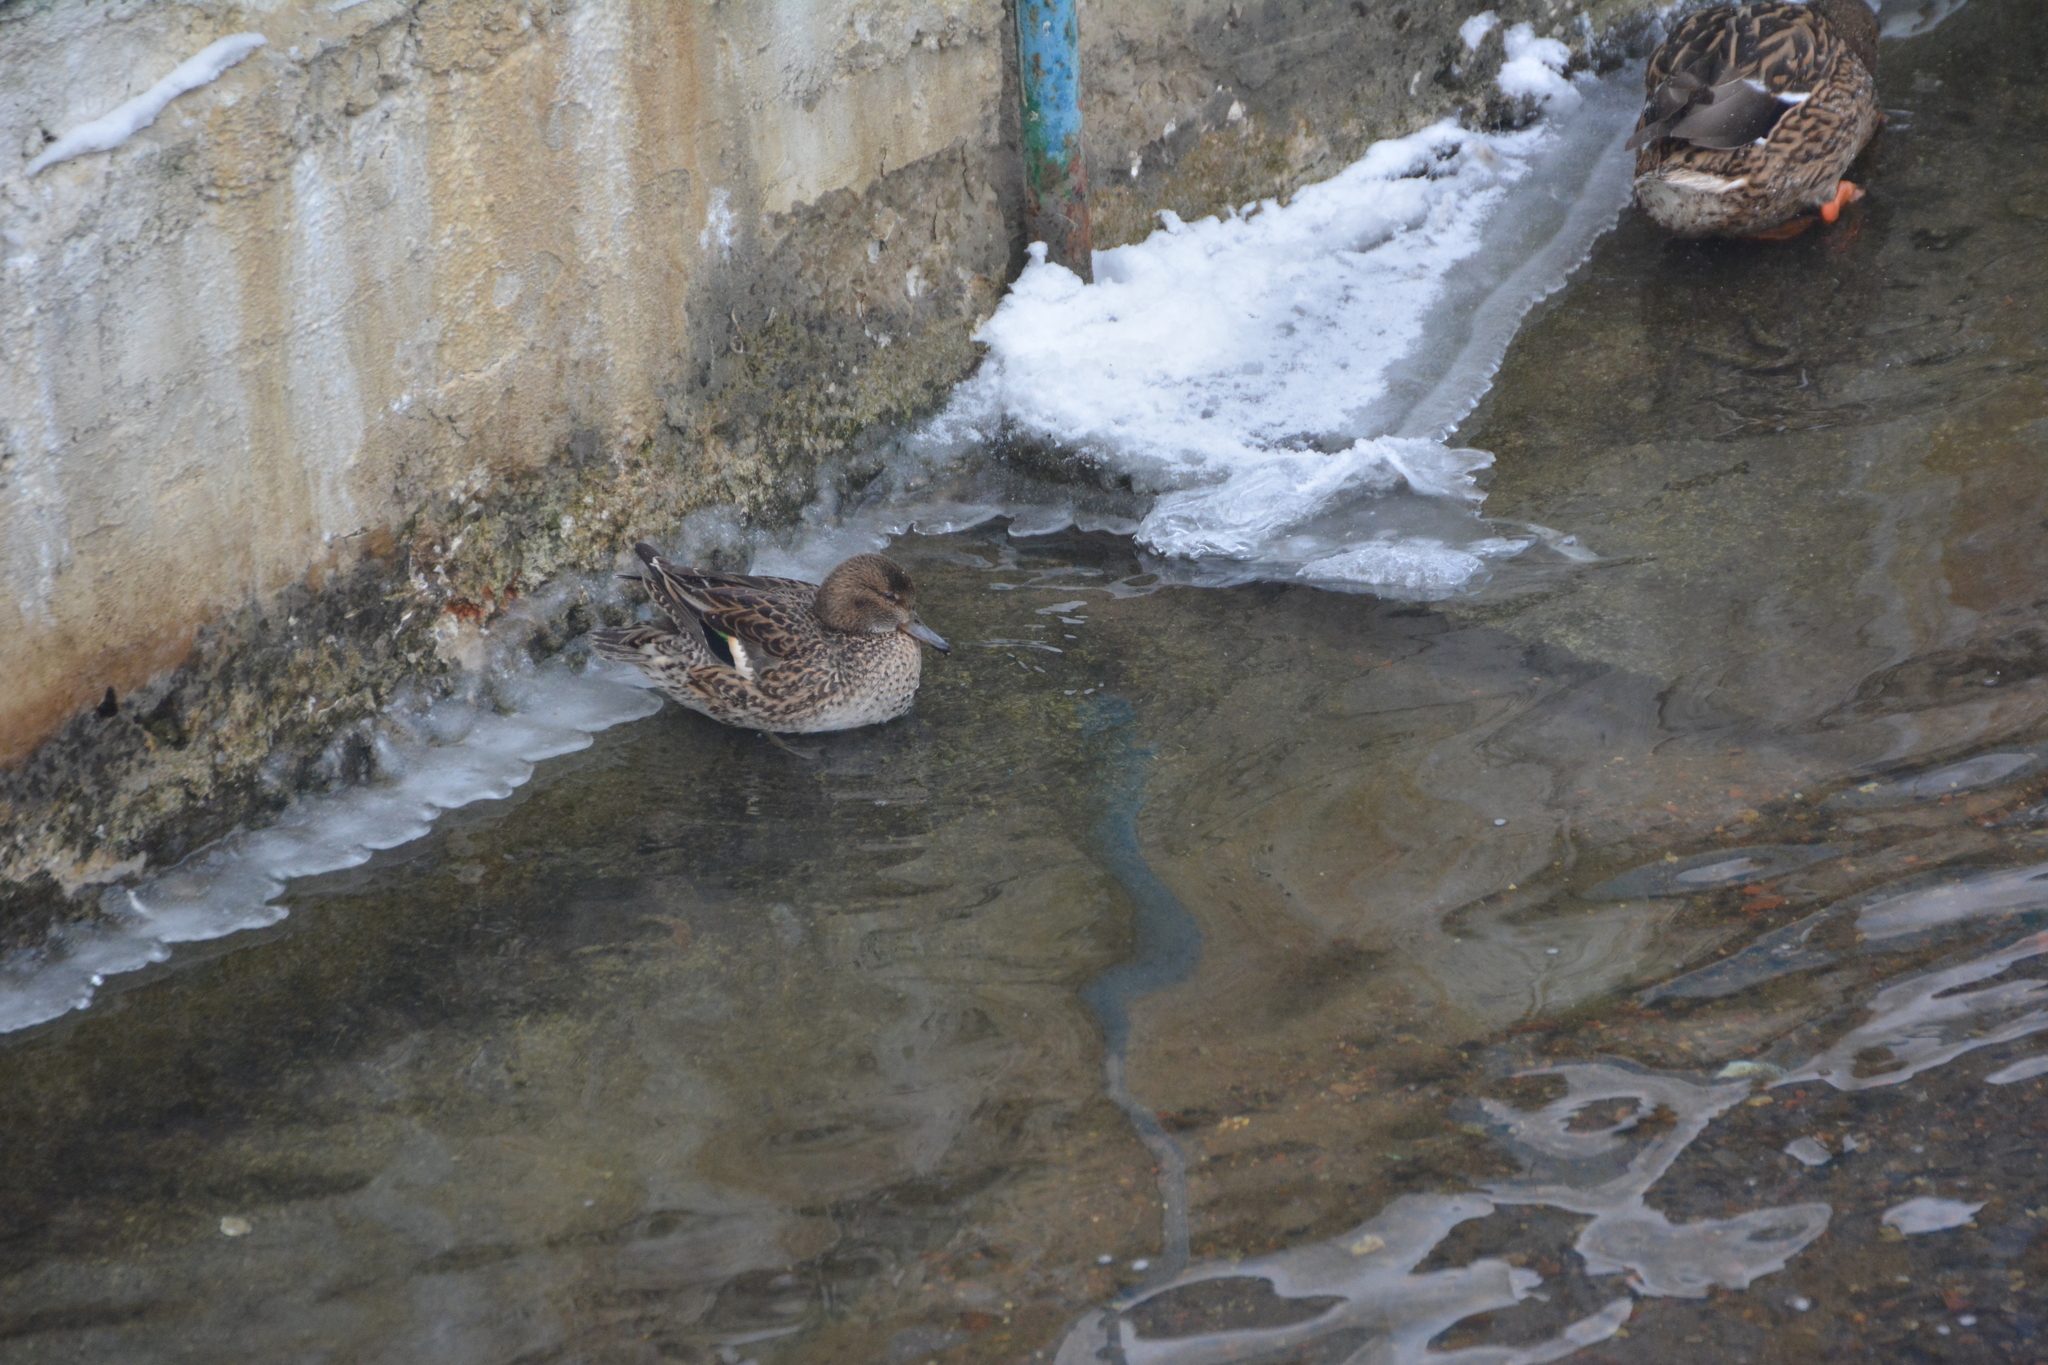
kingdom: Animalia
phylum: Chordata
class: Aves
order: Anseriformes
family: Anatidae
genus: Anas
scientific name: Anas crecca
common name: Eurasian teal
